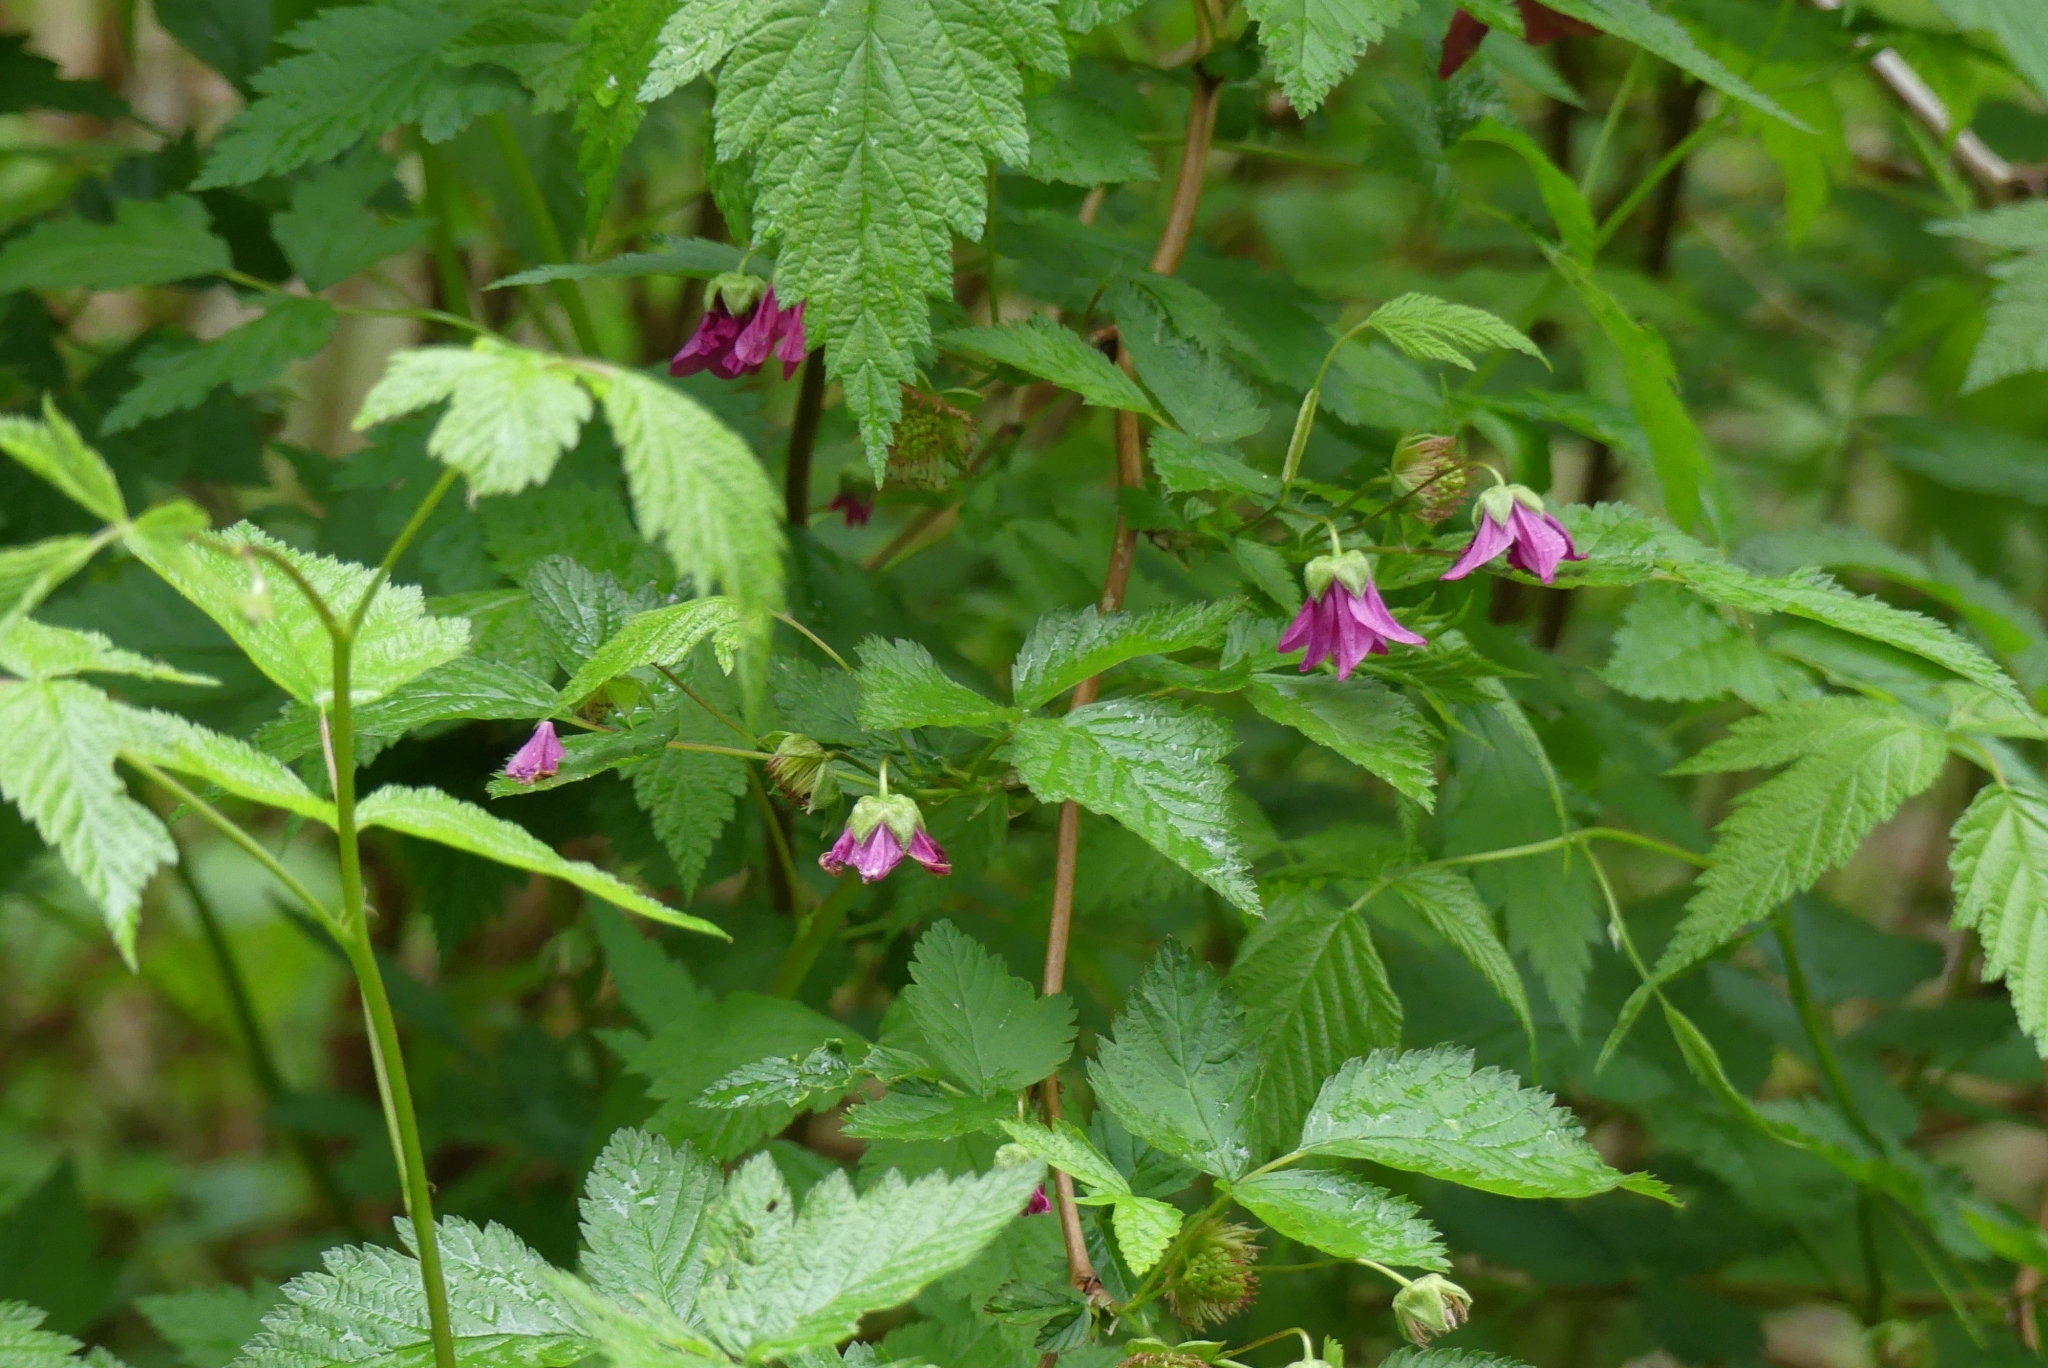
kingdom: Plantae
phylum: Tracheophyta
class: Magnoliopsida
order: Rosales
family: Rosaceae
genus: Rubus
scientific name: Rubus spectabilis
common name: Salmonberry
